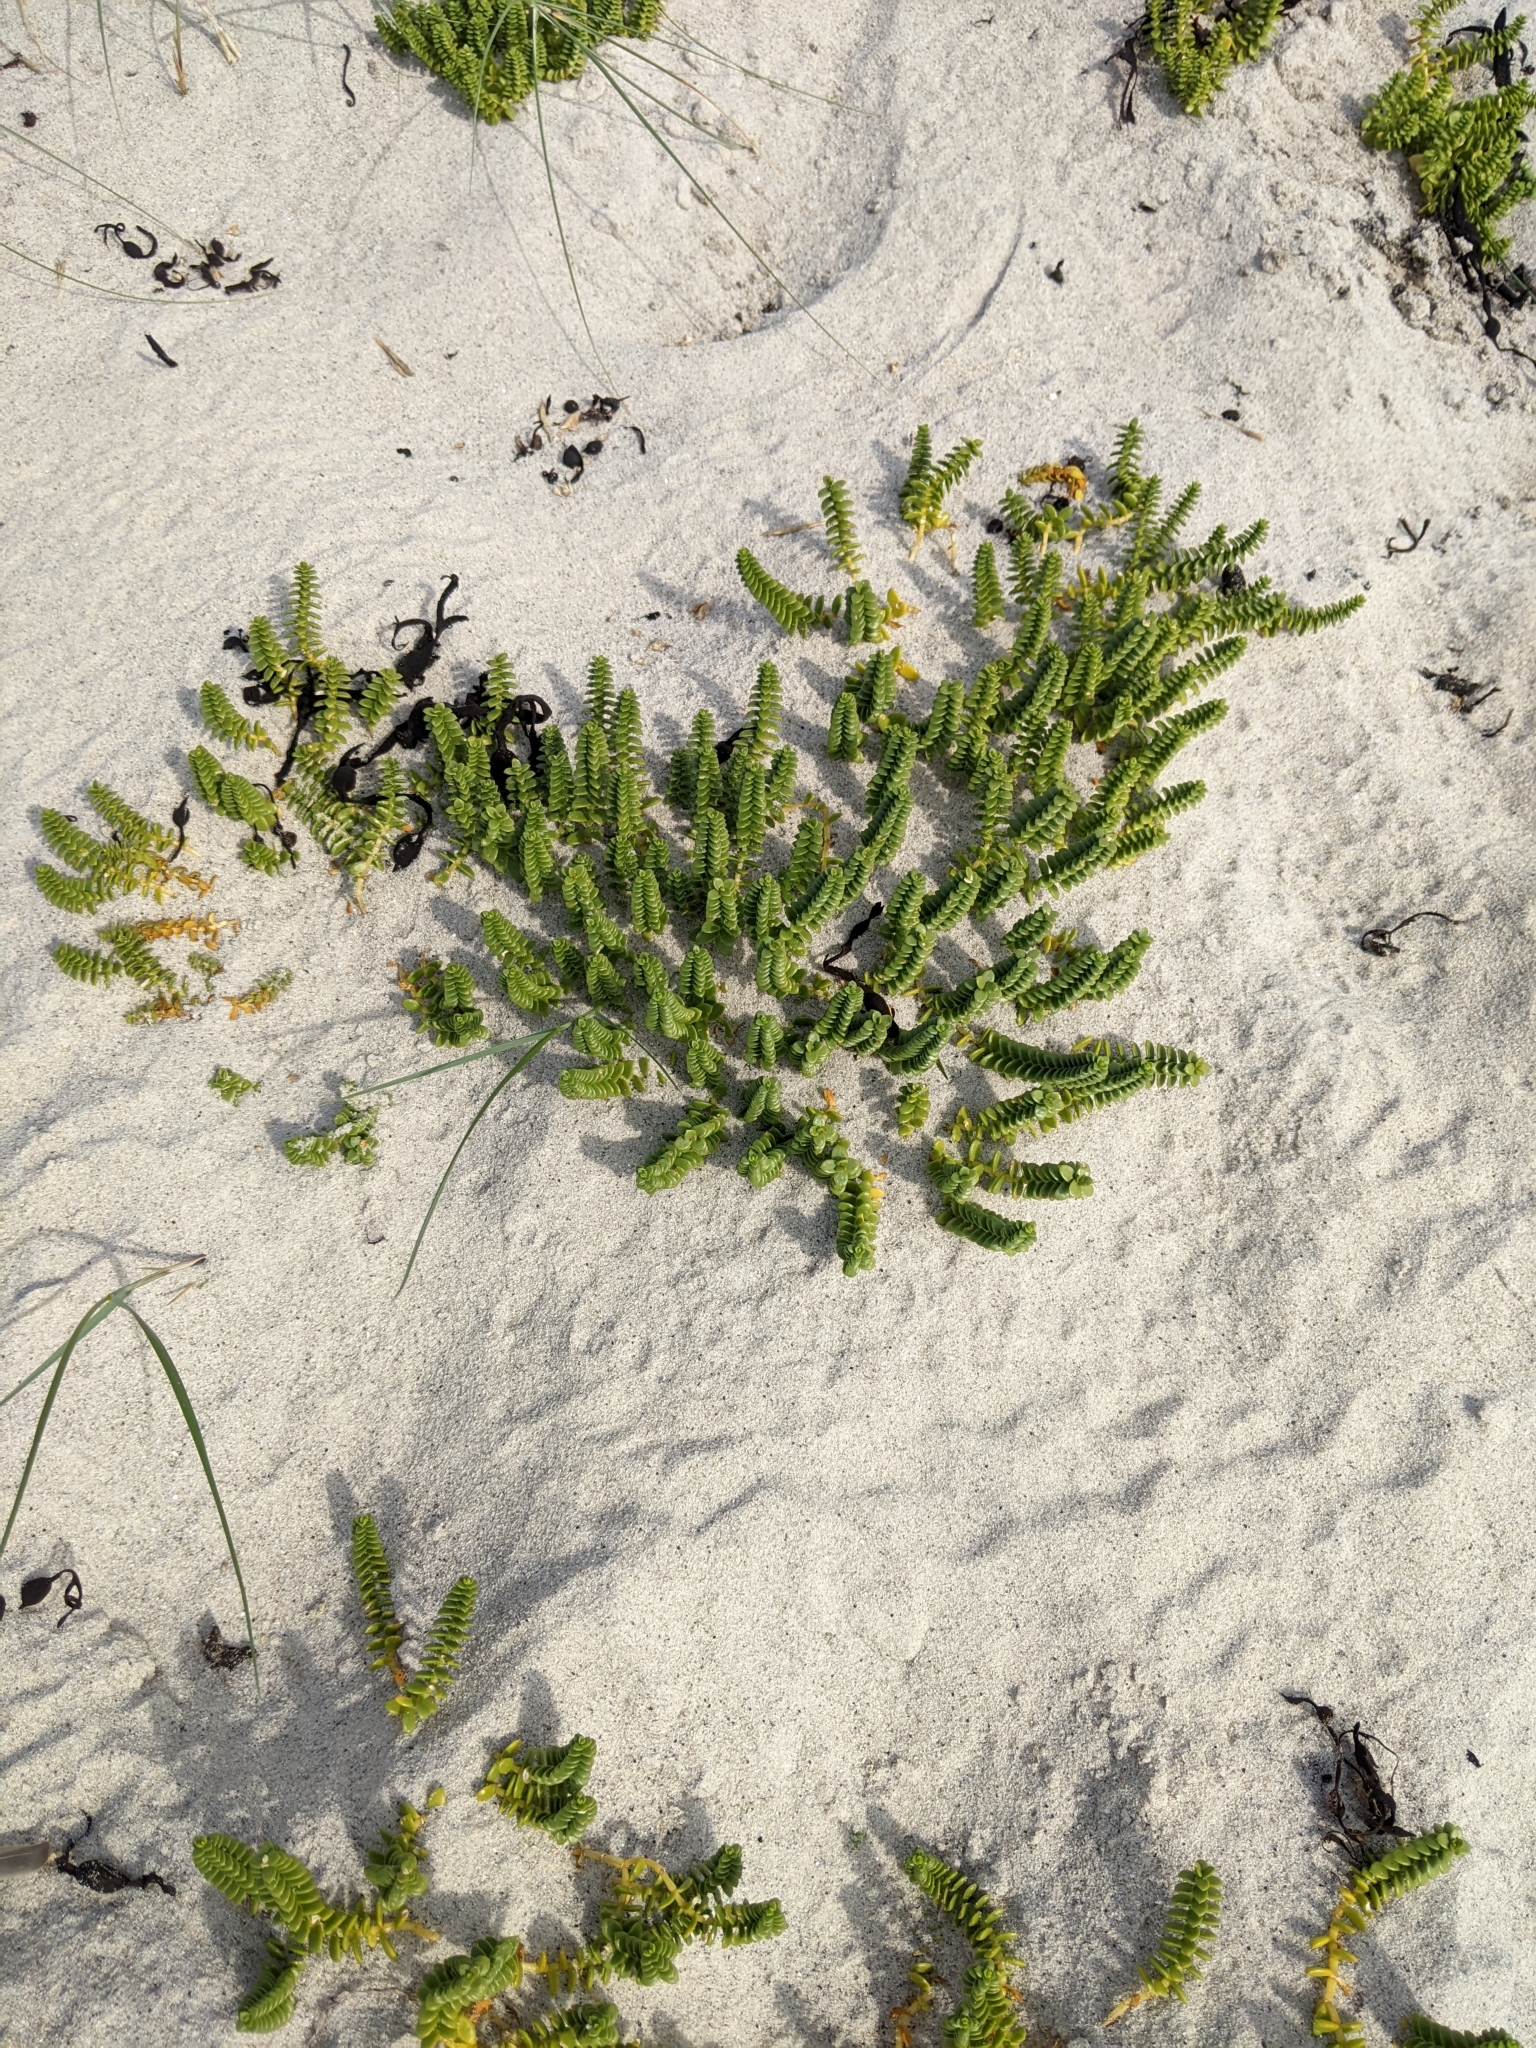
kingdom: Plantae
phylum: Tracheophyta
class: Magnoliopsida
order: Caryophyllales
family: Caryophyllaceae
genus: Honckenya
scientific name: Honckenya peploides
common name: Sea sandwort
